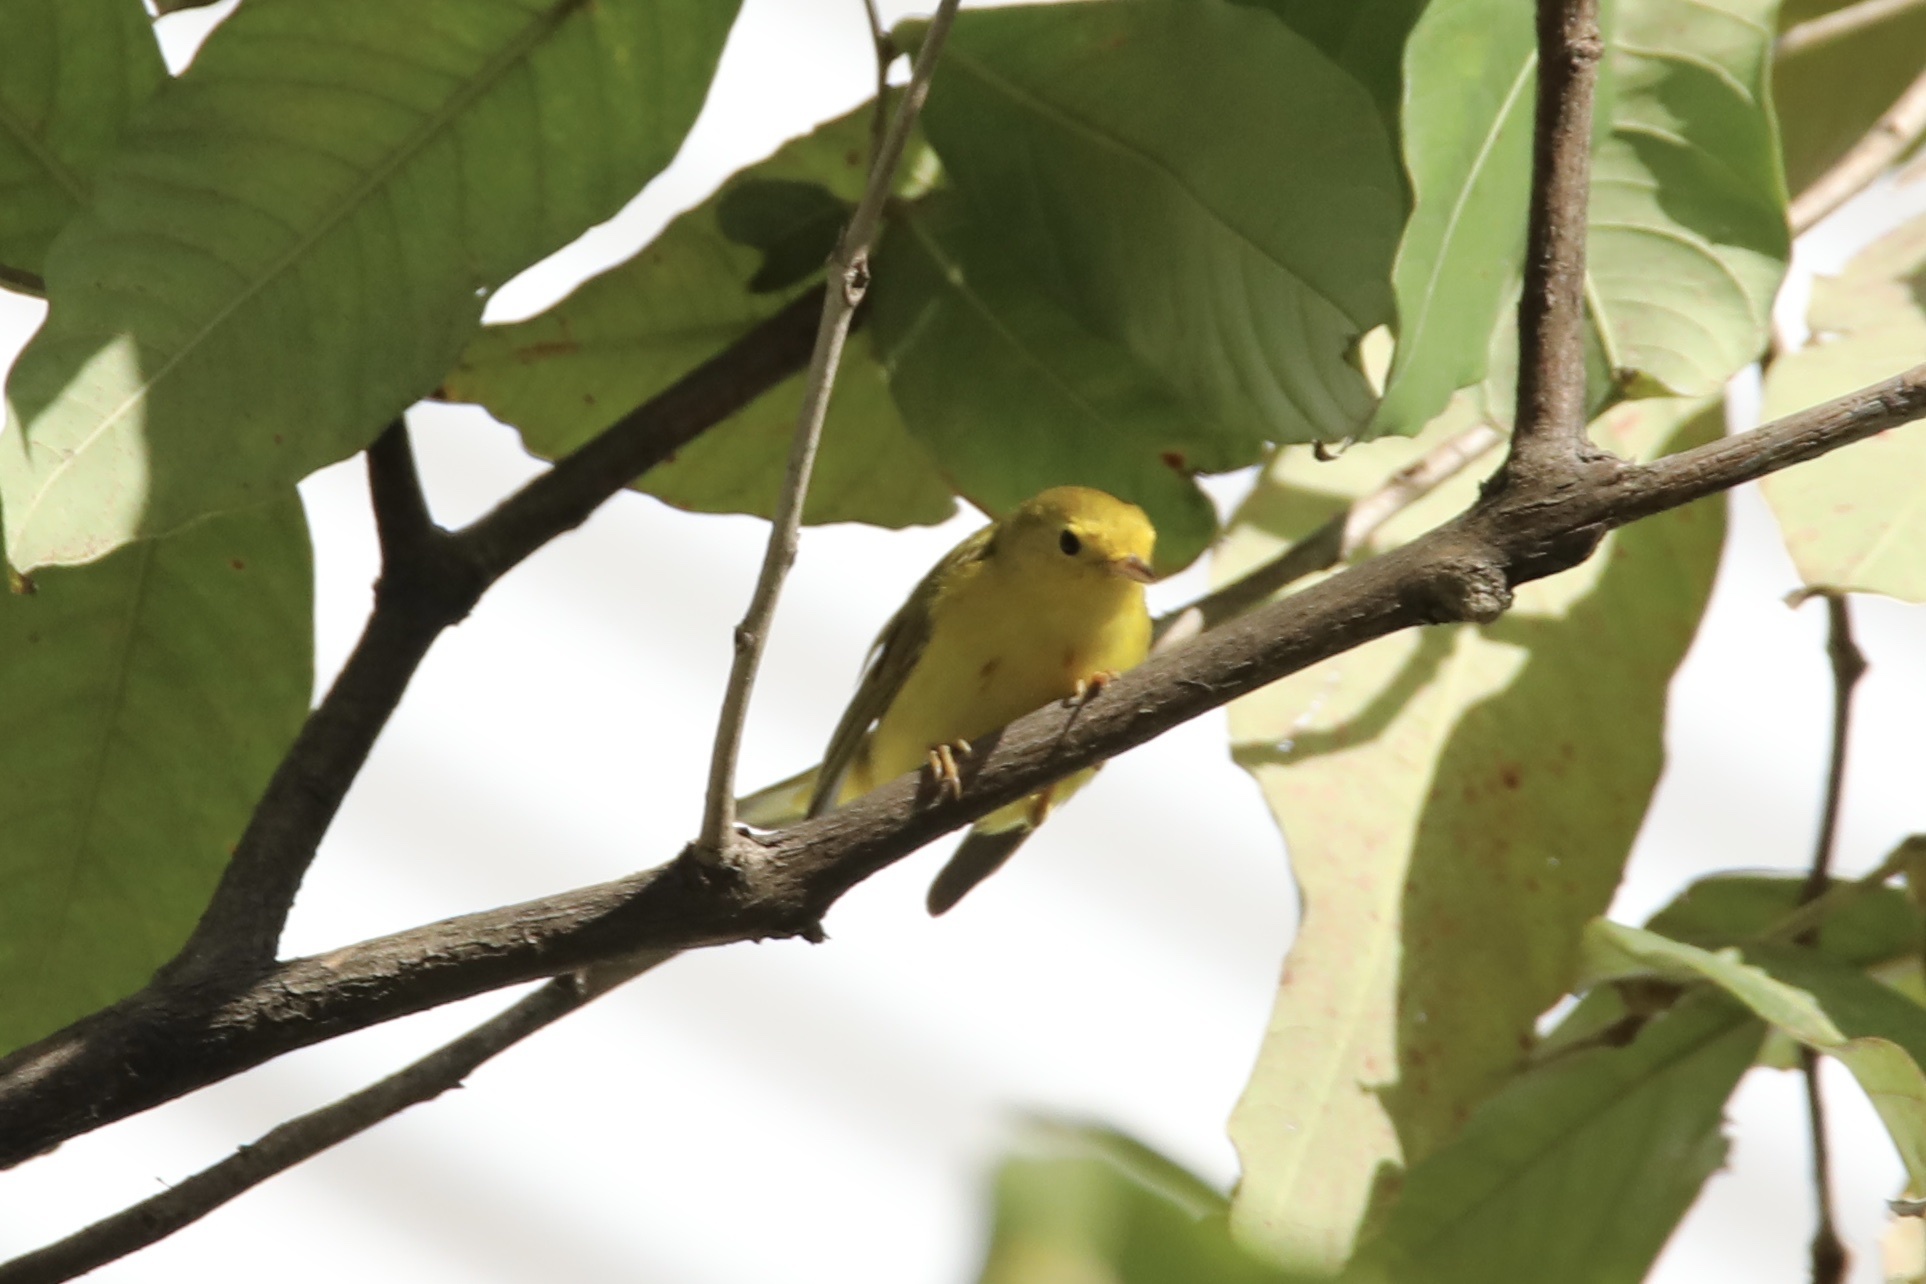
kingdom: Animalia
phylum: Chordata
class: Aves
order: Passeriformes
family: Parulidae
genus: Setophaga
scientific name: Setophaga petechia
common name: Yellow warbler
